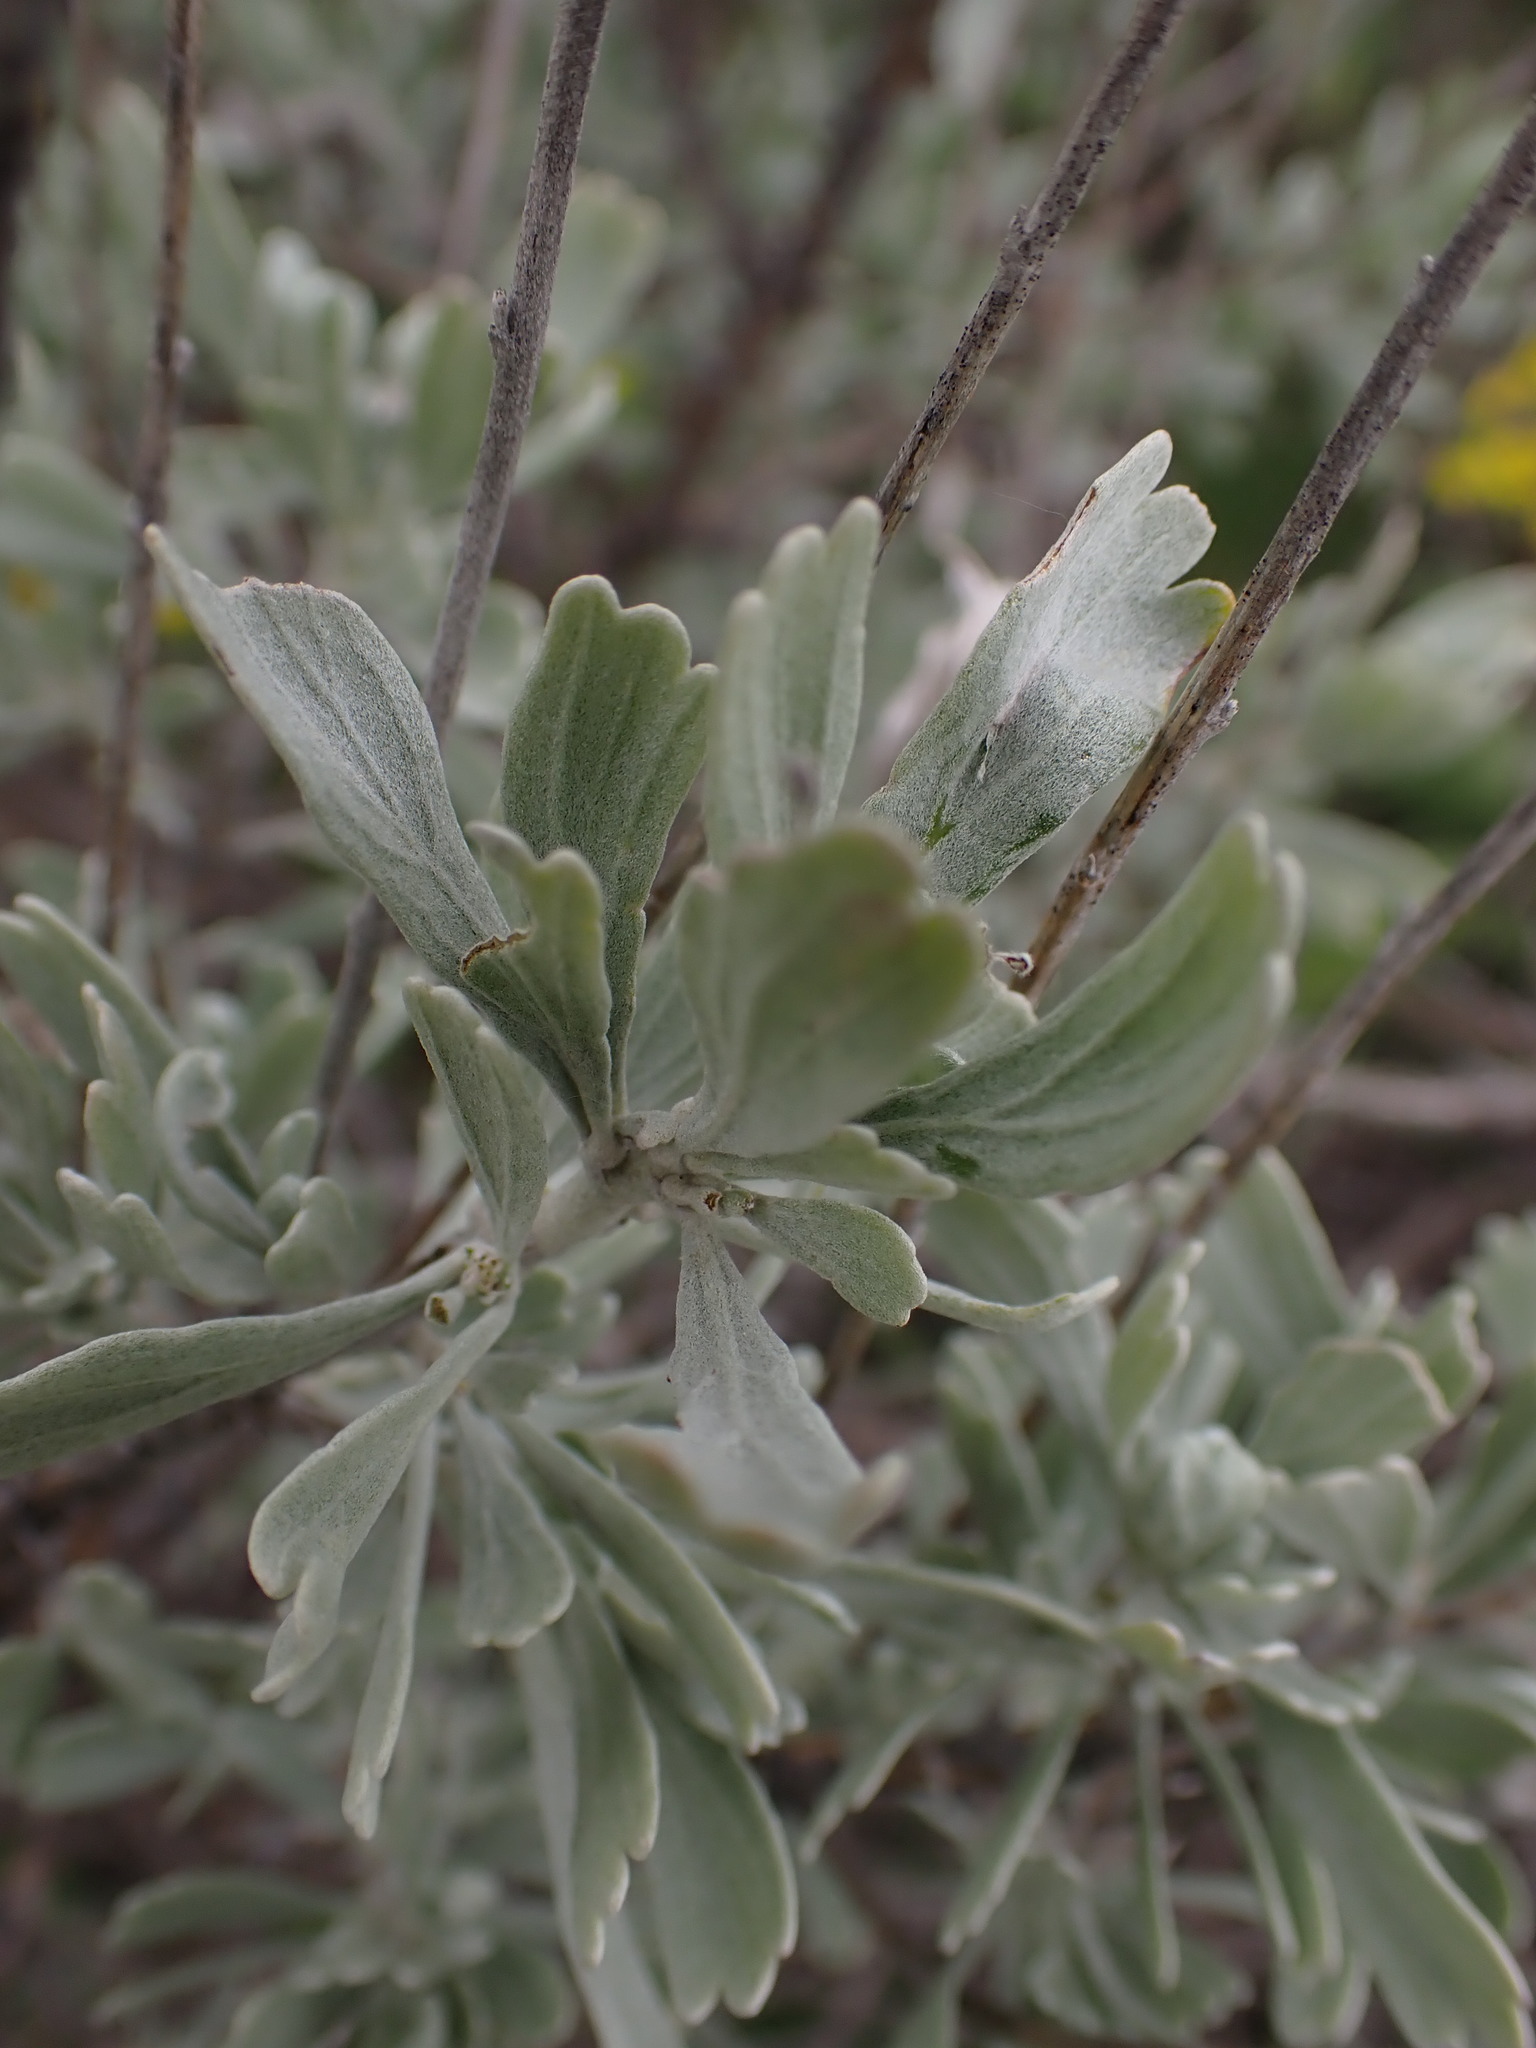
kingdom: Plantae
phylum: Tracheophyta
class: Magnoliopsida
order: Asterales
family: Asteraceae
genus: Artemisia
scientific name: Artemisia tridentata
